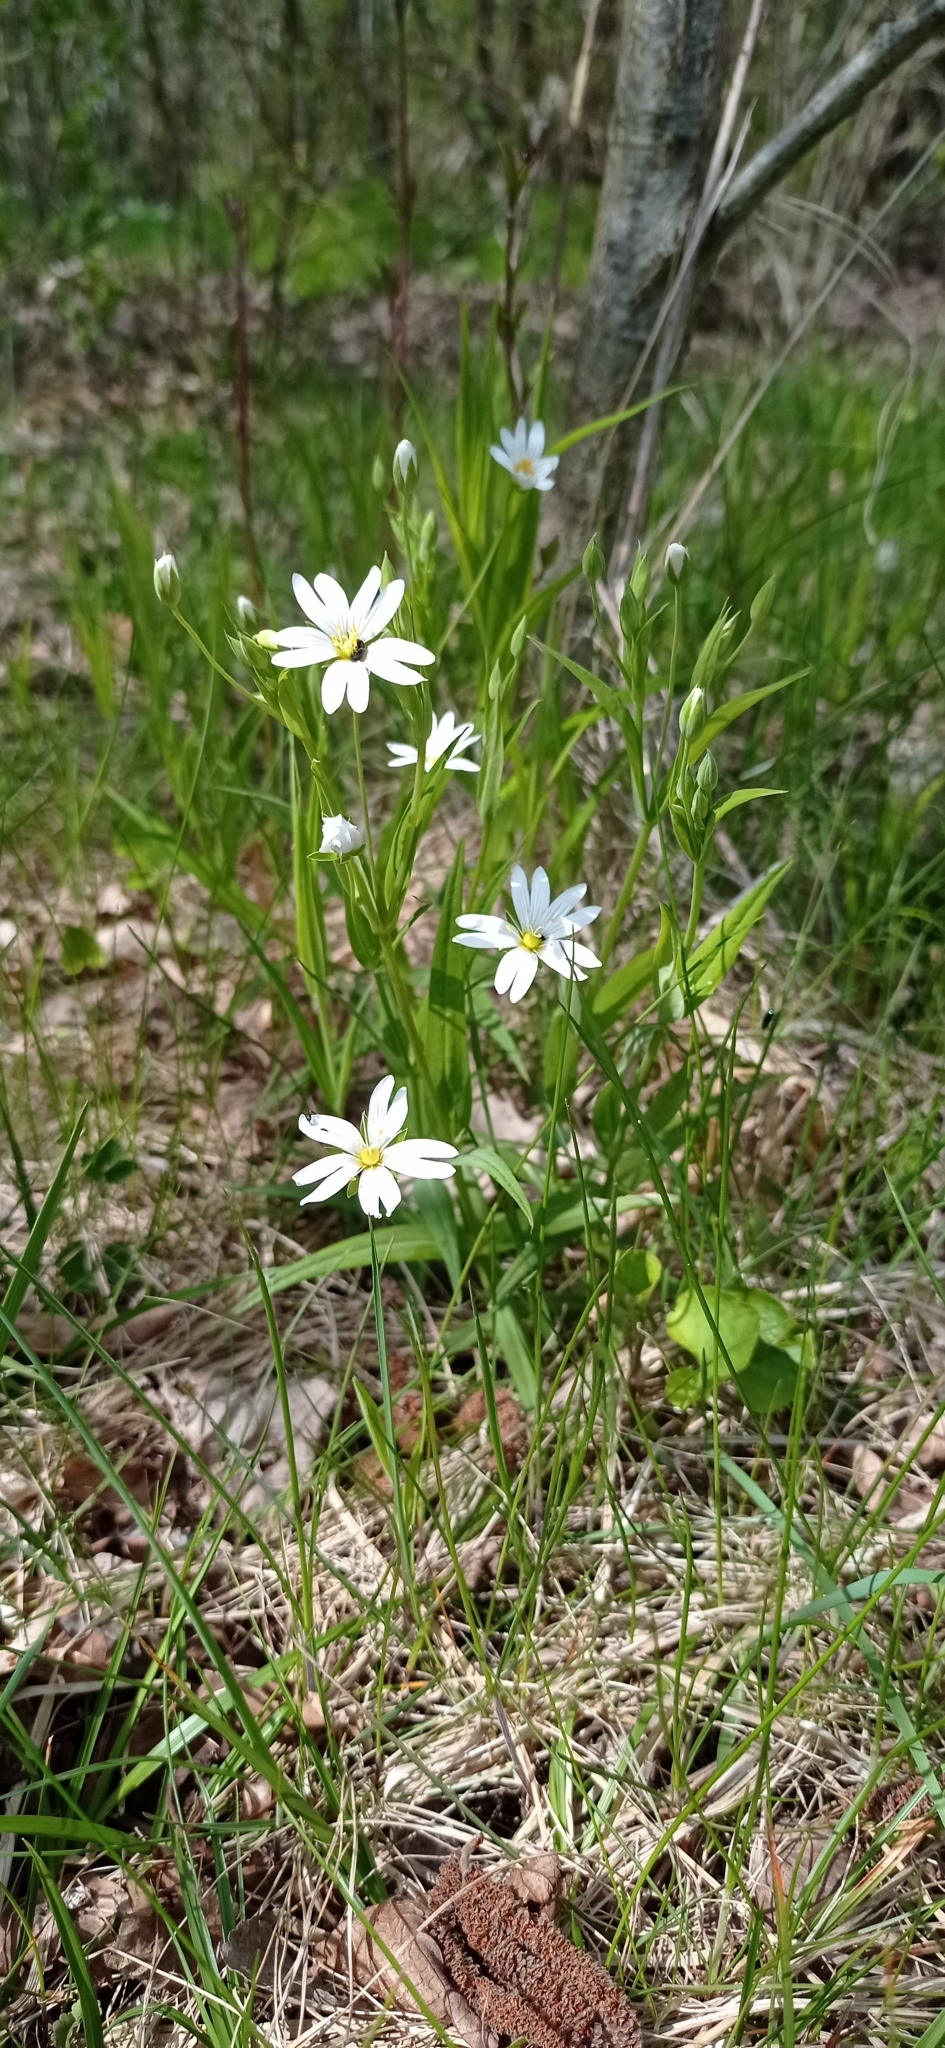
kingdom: Plantae
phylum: Tracheophyta
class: Magnoliopsida
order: Caryophyllales
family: Caryophyllaceae
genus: Rabelera
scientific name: Rabelera holostea
